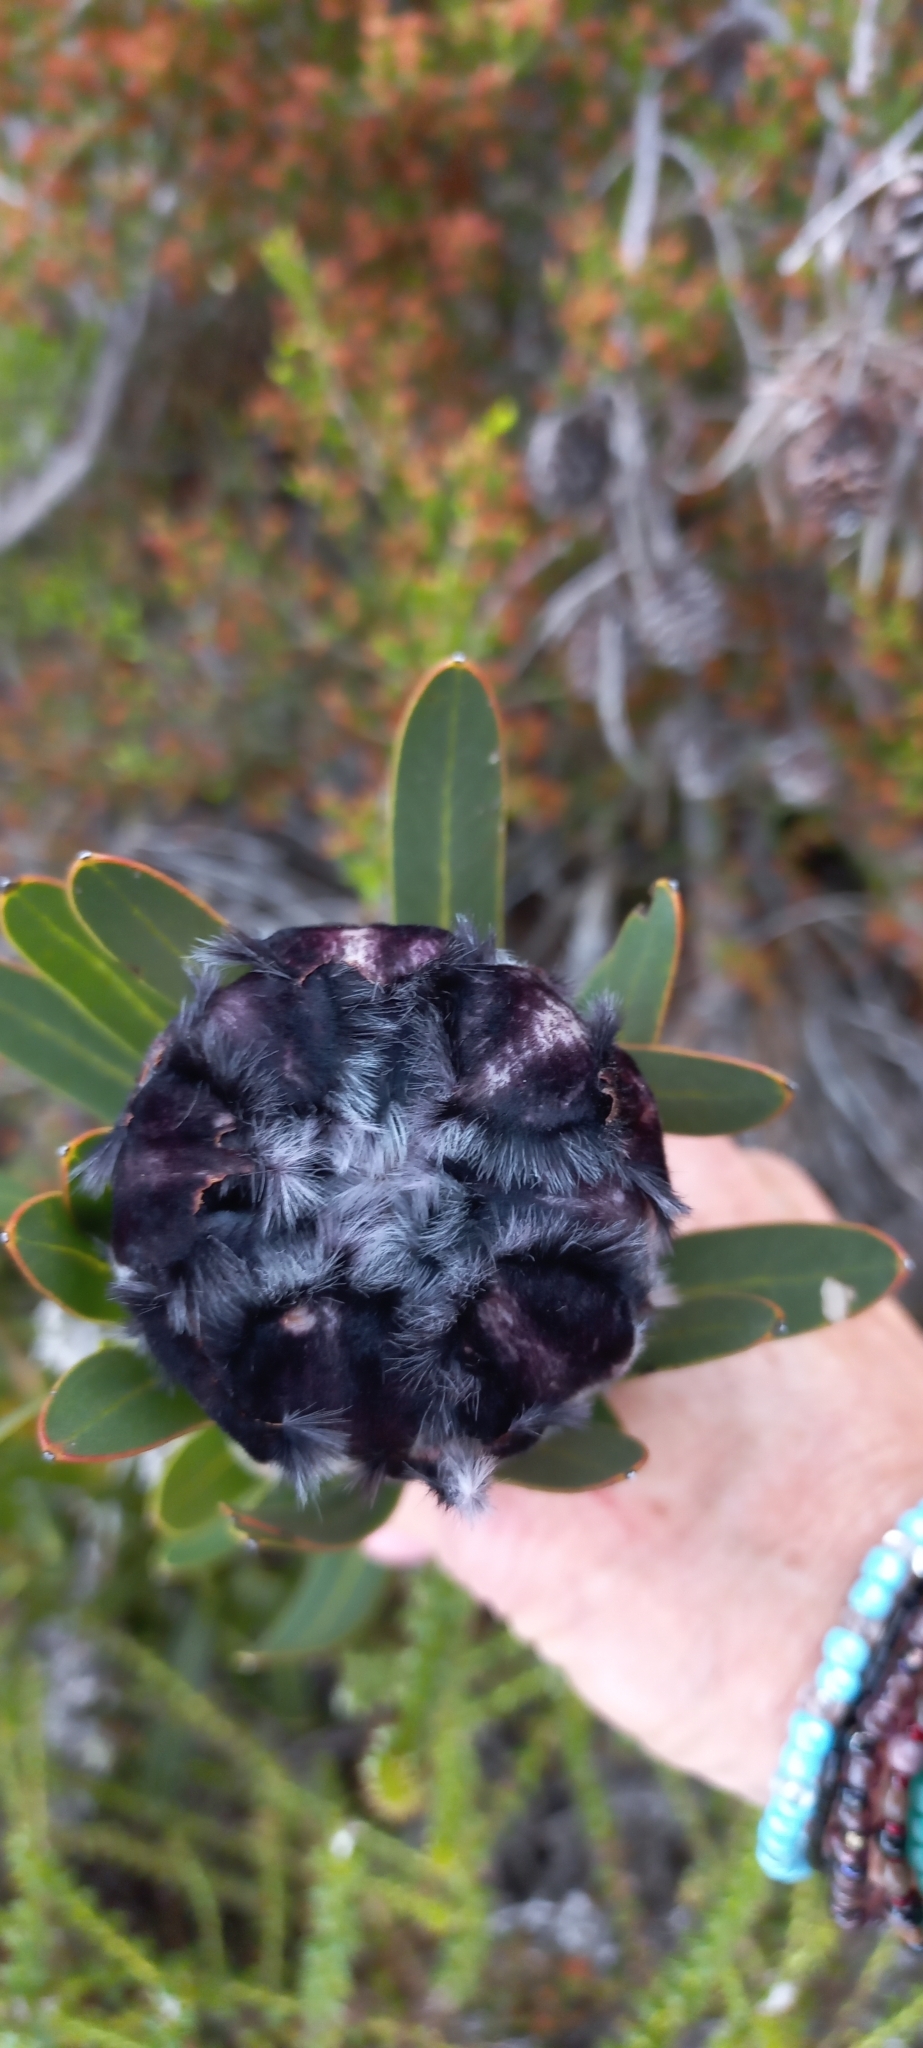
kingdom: Plantae
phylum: Tracheophyta
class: Magnoliopsida
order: Proteales
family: Proteaceae
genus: Protea
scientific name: Protea lepidocarpodendron
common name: Black-bearded protea
